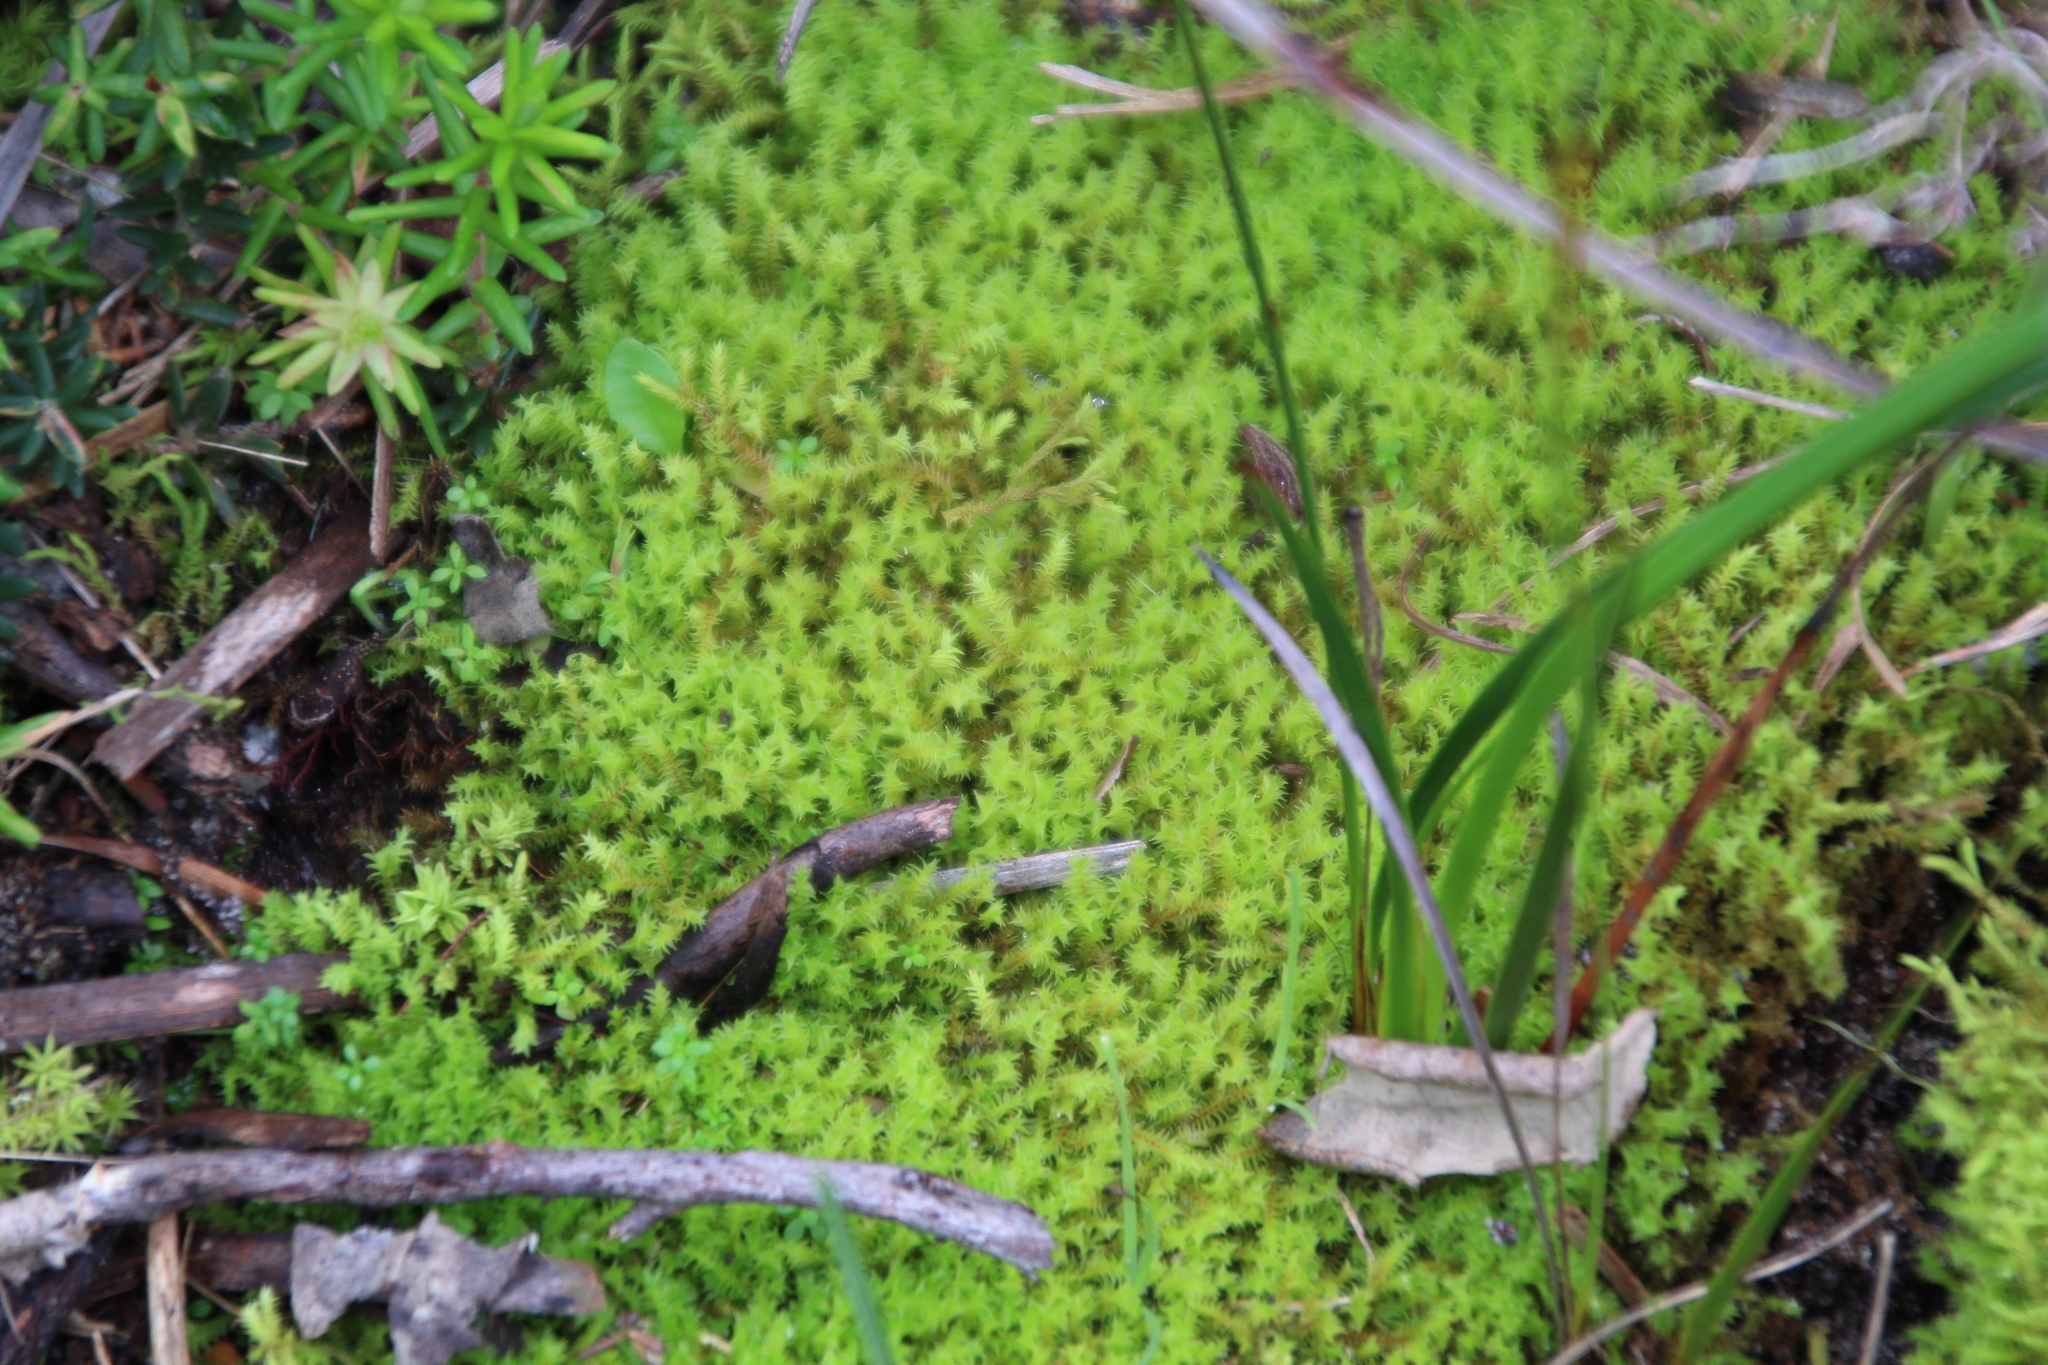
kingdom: Plantae
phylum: Bryophyta
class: Bryopsida
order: Pottiales
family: Pottiaceae
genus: Triquetrella
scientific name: Triquetrella papillata
